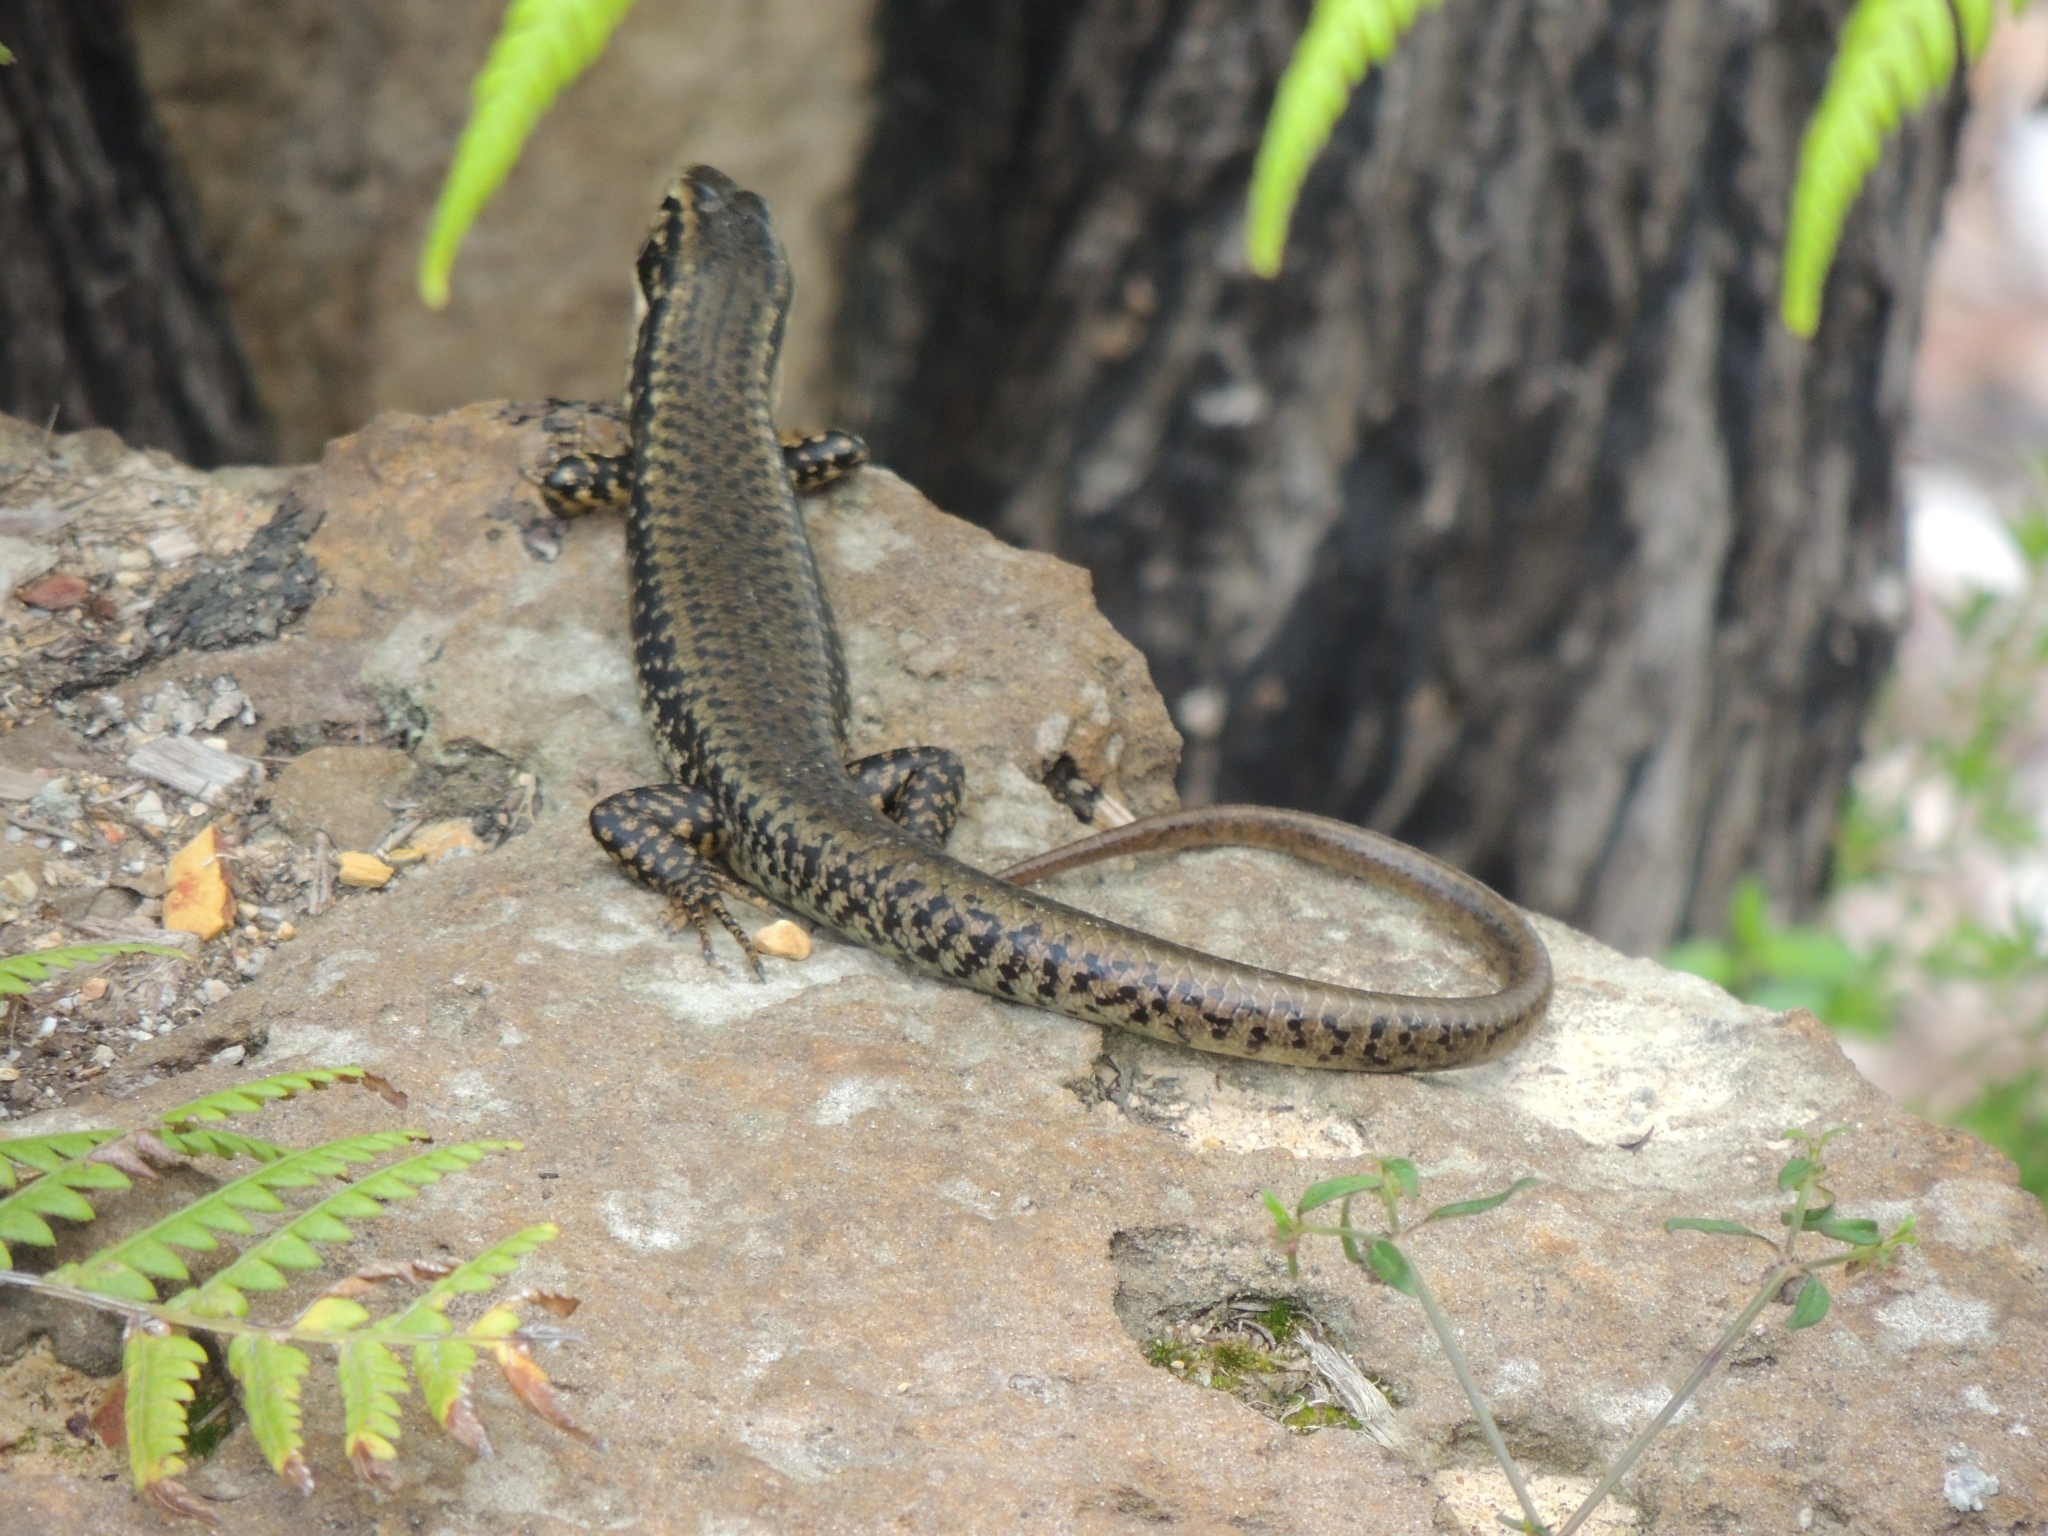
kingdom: Animalia
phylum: Chordata
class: Squamata
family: Scincidae
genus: Eulamprus
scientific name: Eulamprus heatwolei
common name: Warm-temperate water-skink
